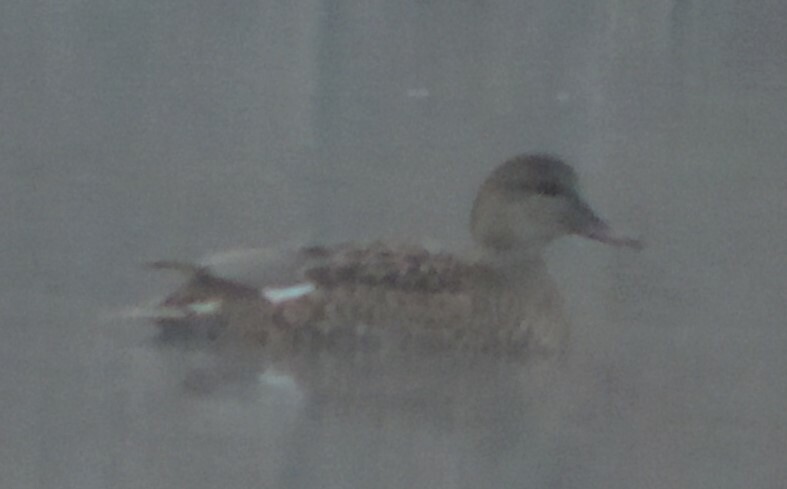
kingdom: Animalia
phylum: Chordata
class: Aves
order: Anseriformes
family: Anatidae
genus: Mareca
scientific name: Mareca strepera
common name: Gadwall
